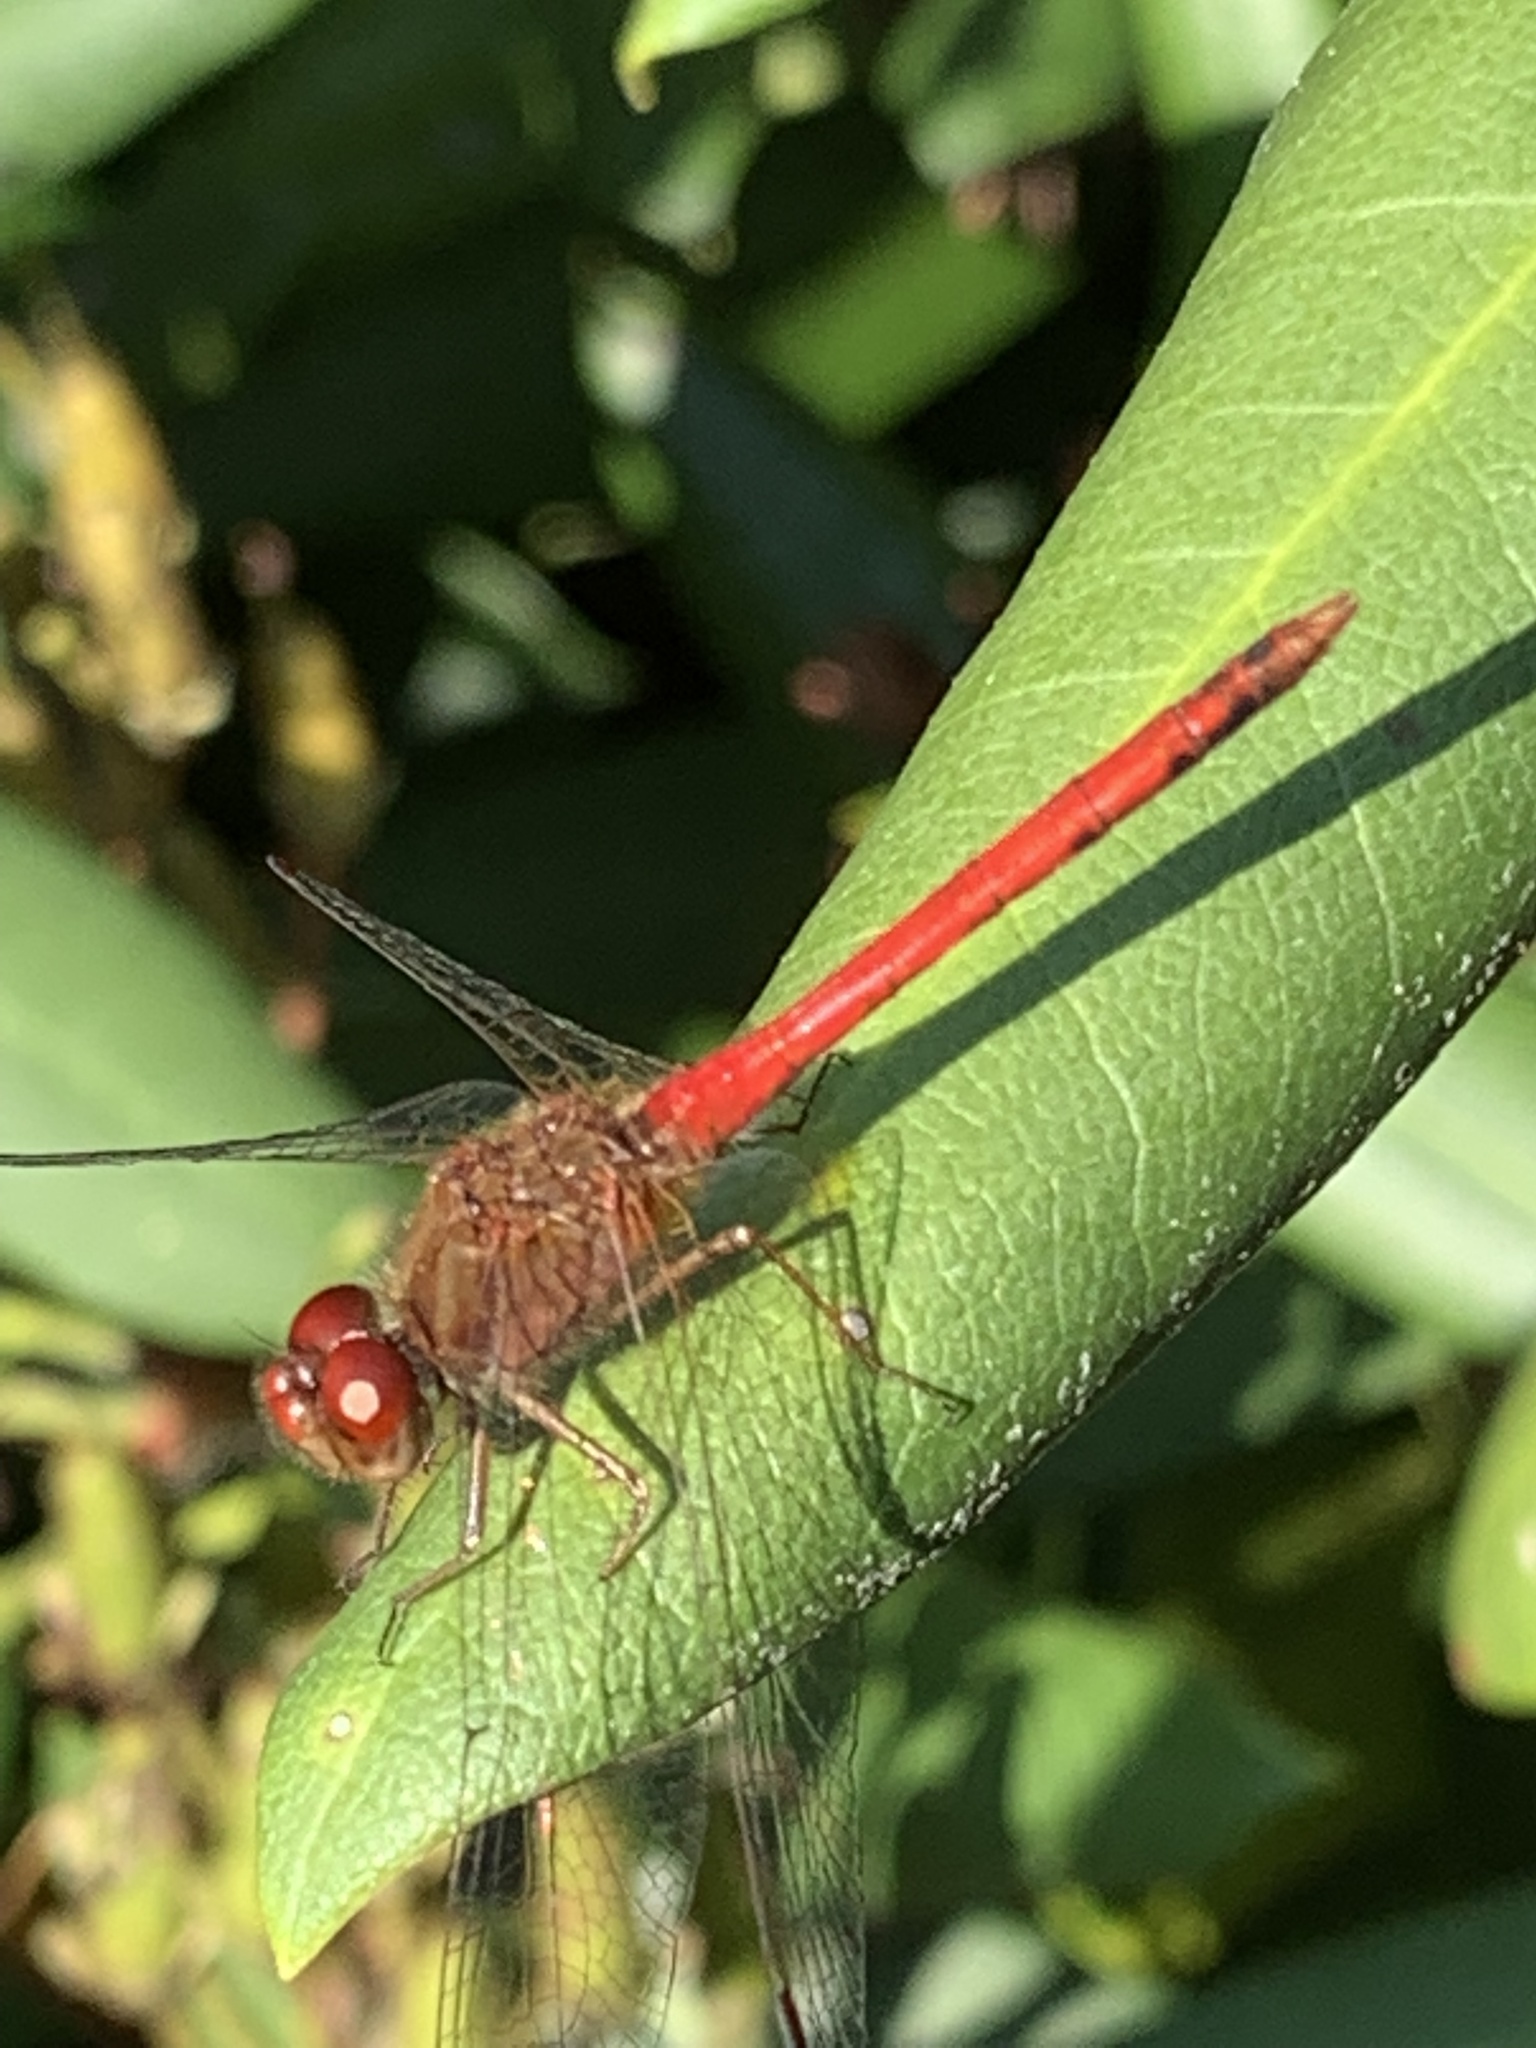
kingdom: Animalia
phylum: Arthropoda
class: Insecta
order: Odonata
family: Libellulidae
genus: Sympetrum
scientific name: Sympetrum vicinum
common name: Autumn meadowhawk
